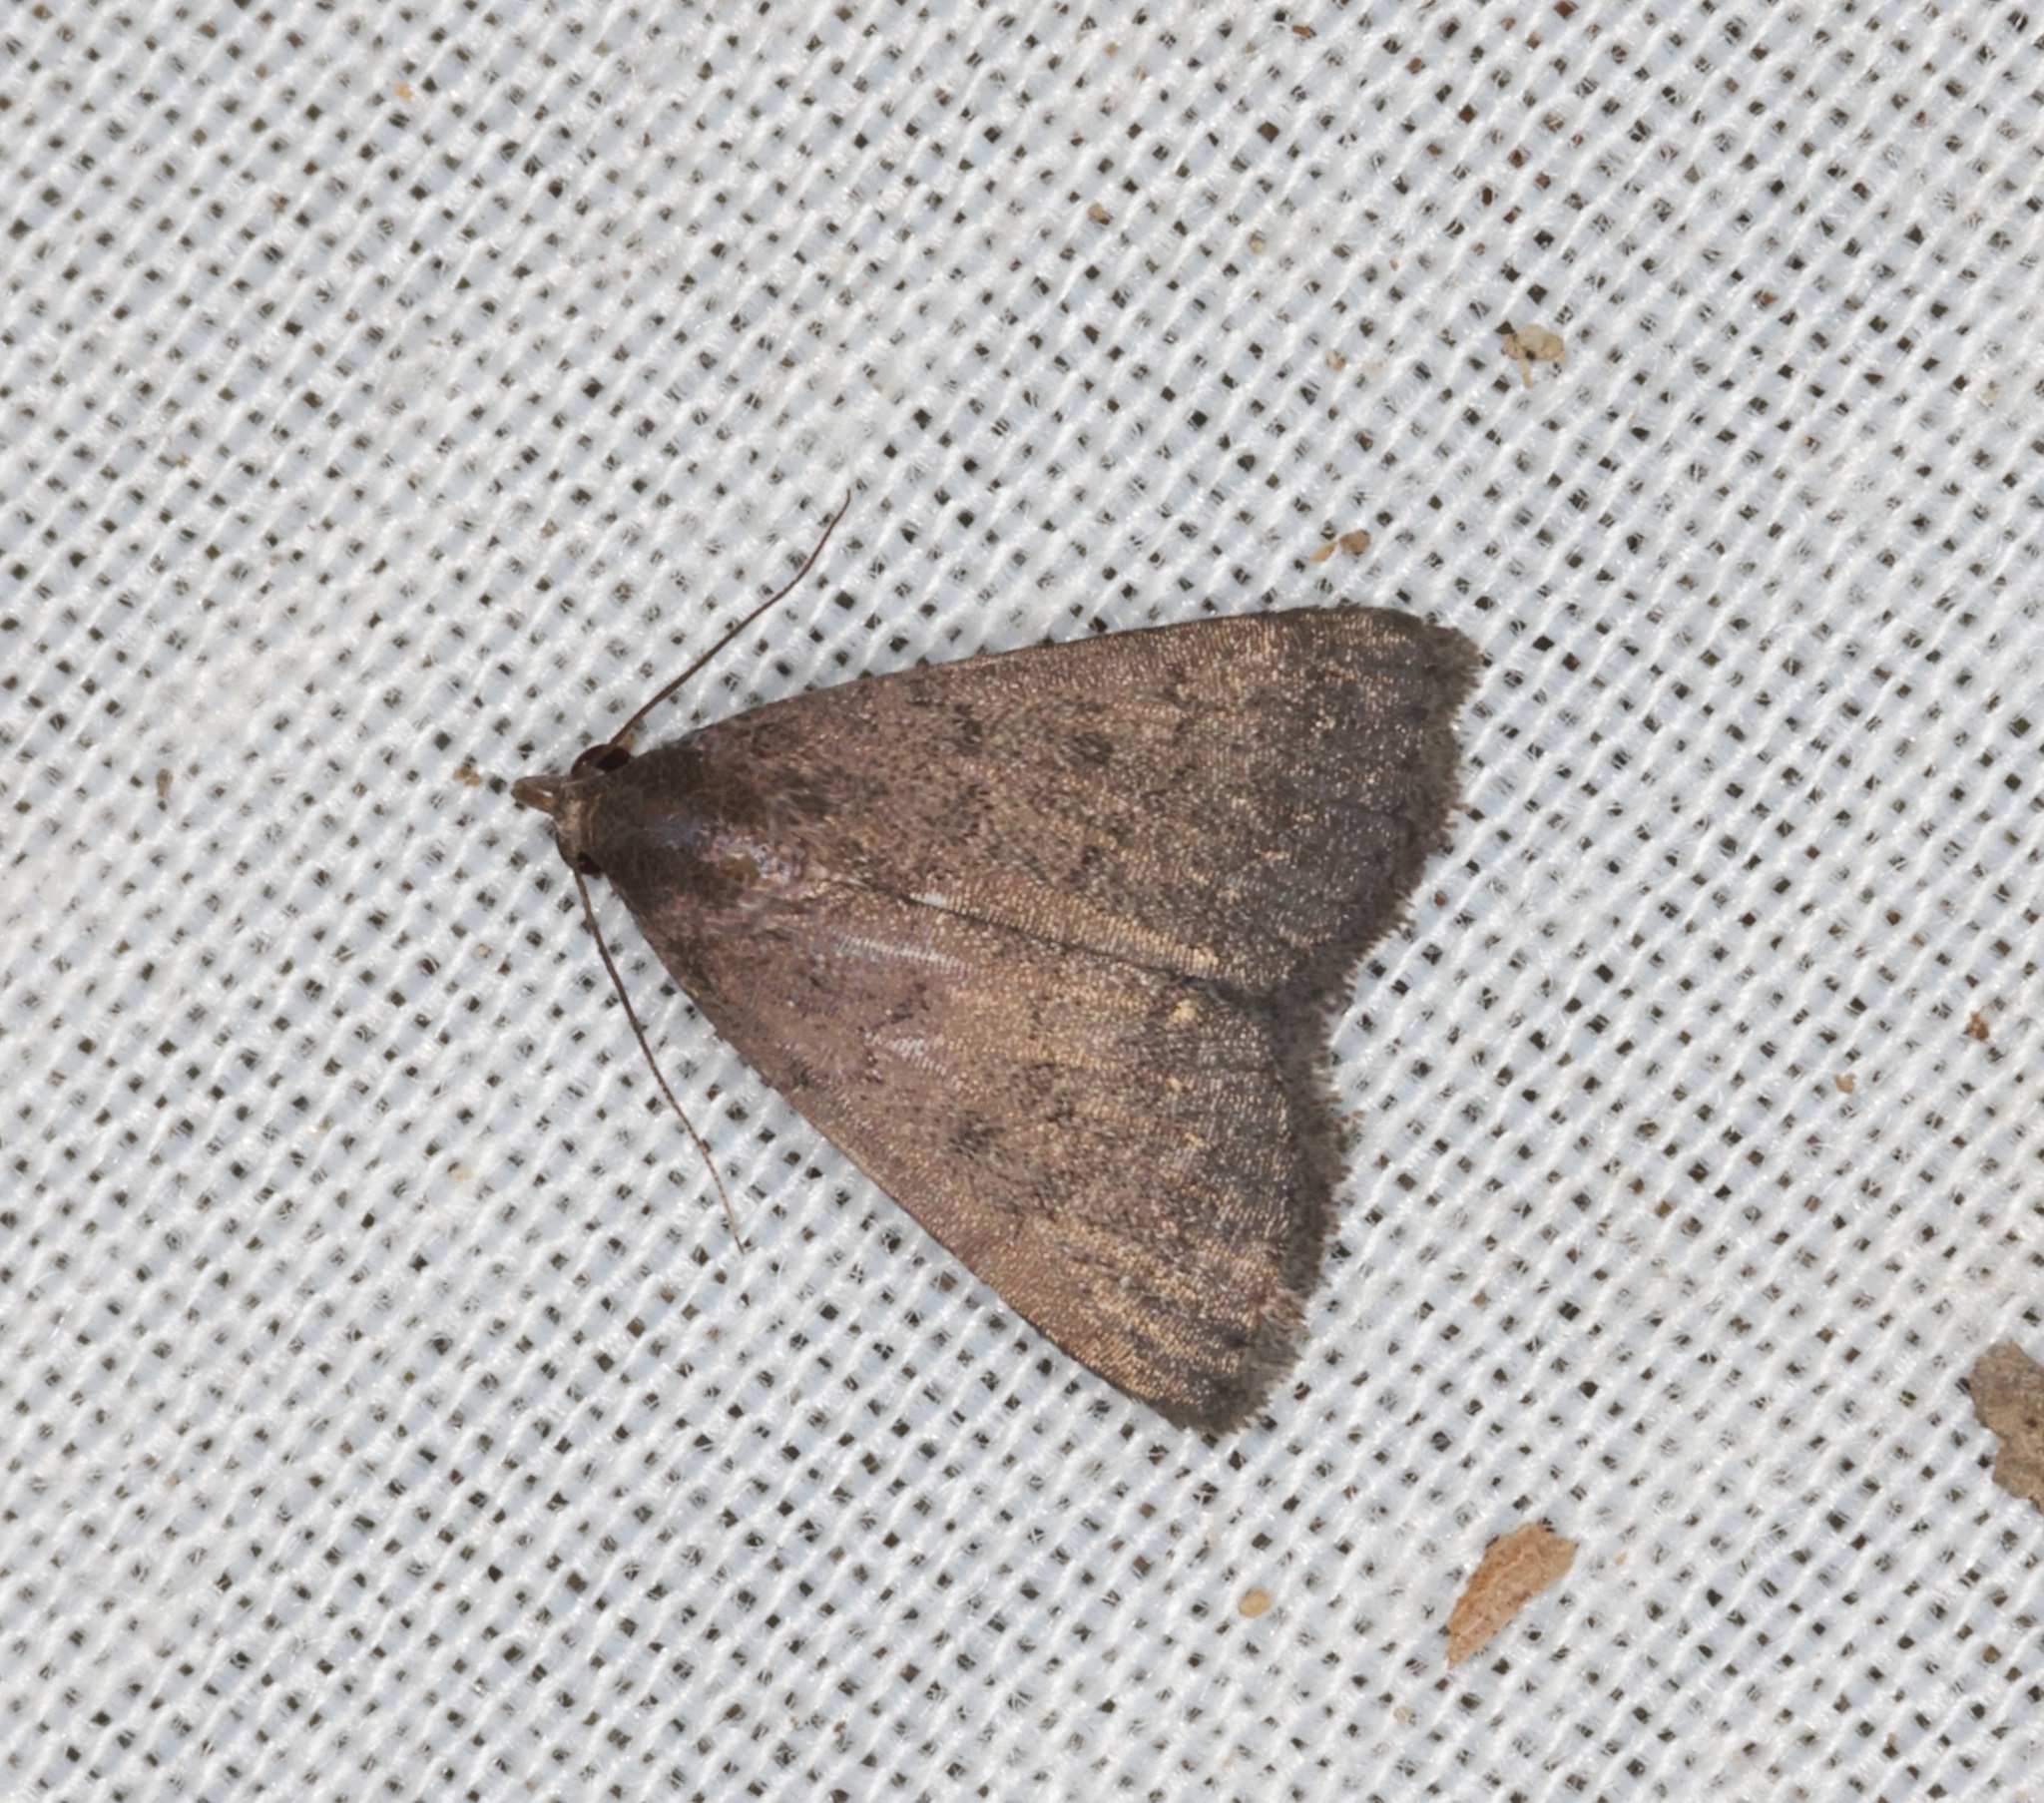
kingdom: Animalia
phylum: Arthropoda
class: Insecta
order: Lepidoptera
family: Erebidae
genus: Nodaria
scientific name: Nodaria externalis
